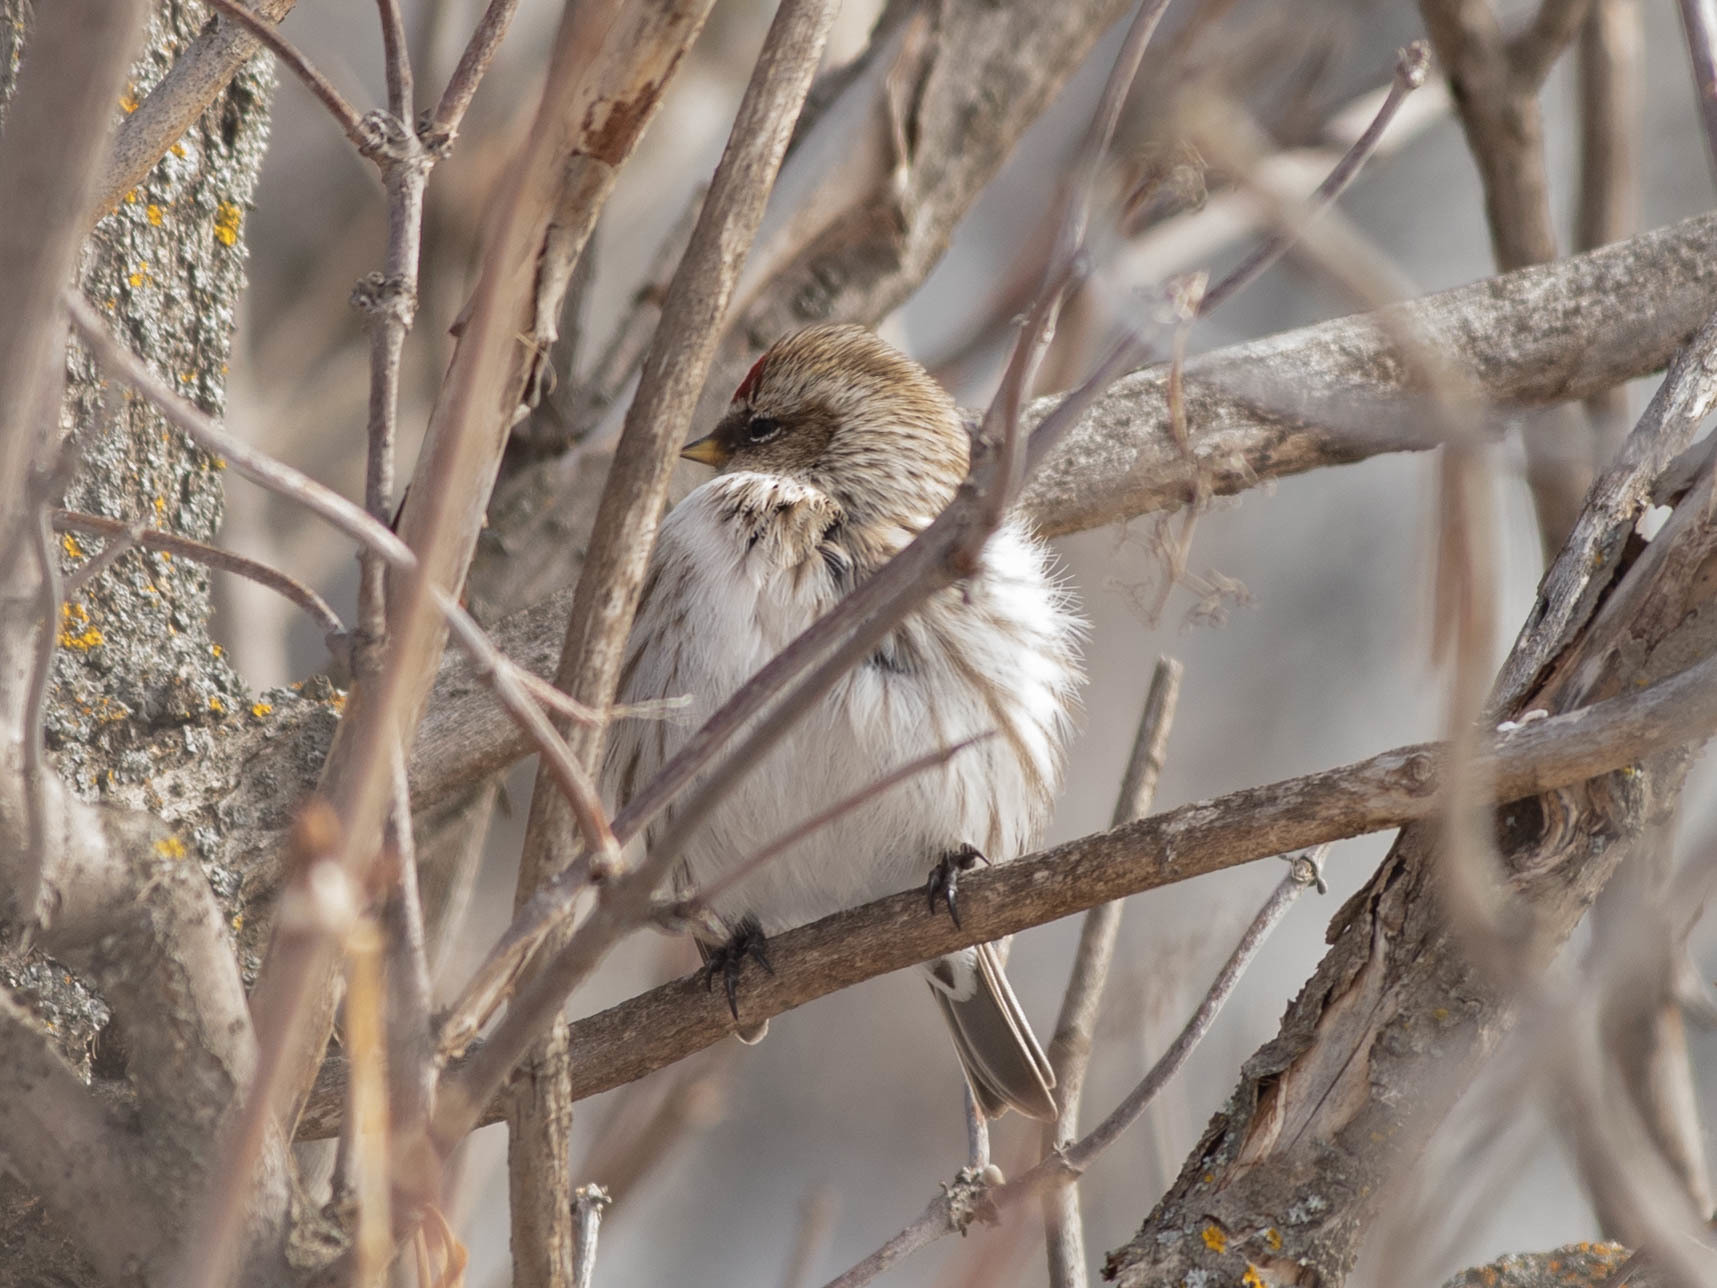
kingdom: Animalia
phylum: Chordata
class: Aves
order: Passeriformes
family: Fringillidae
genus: Acanthis
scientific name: Acanthis flammea
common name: Common redpoll
